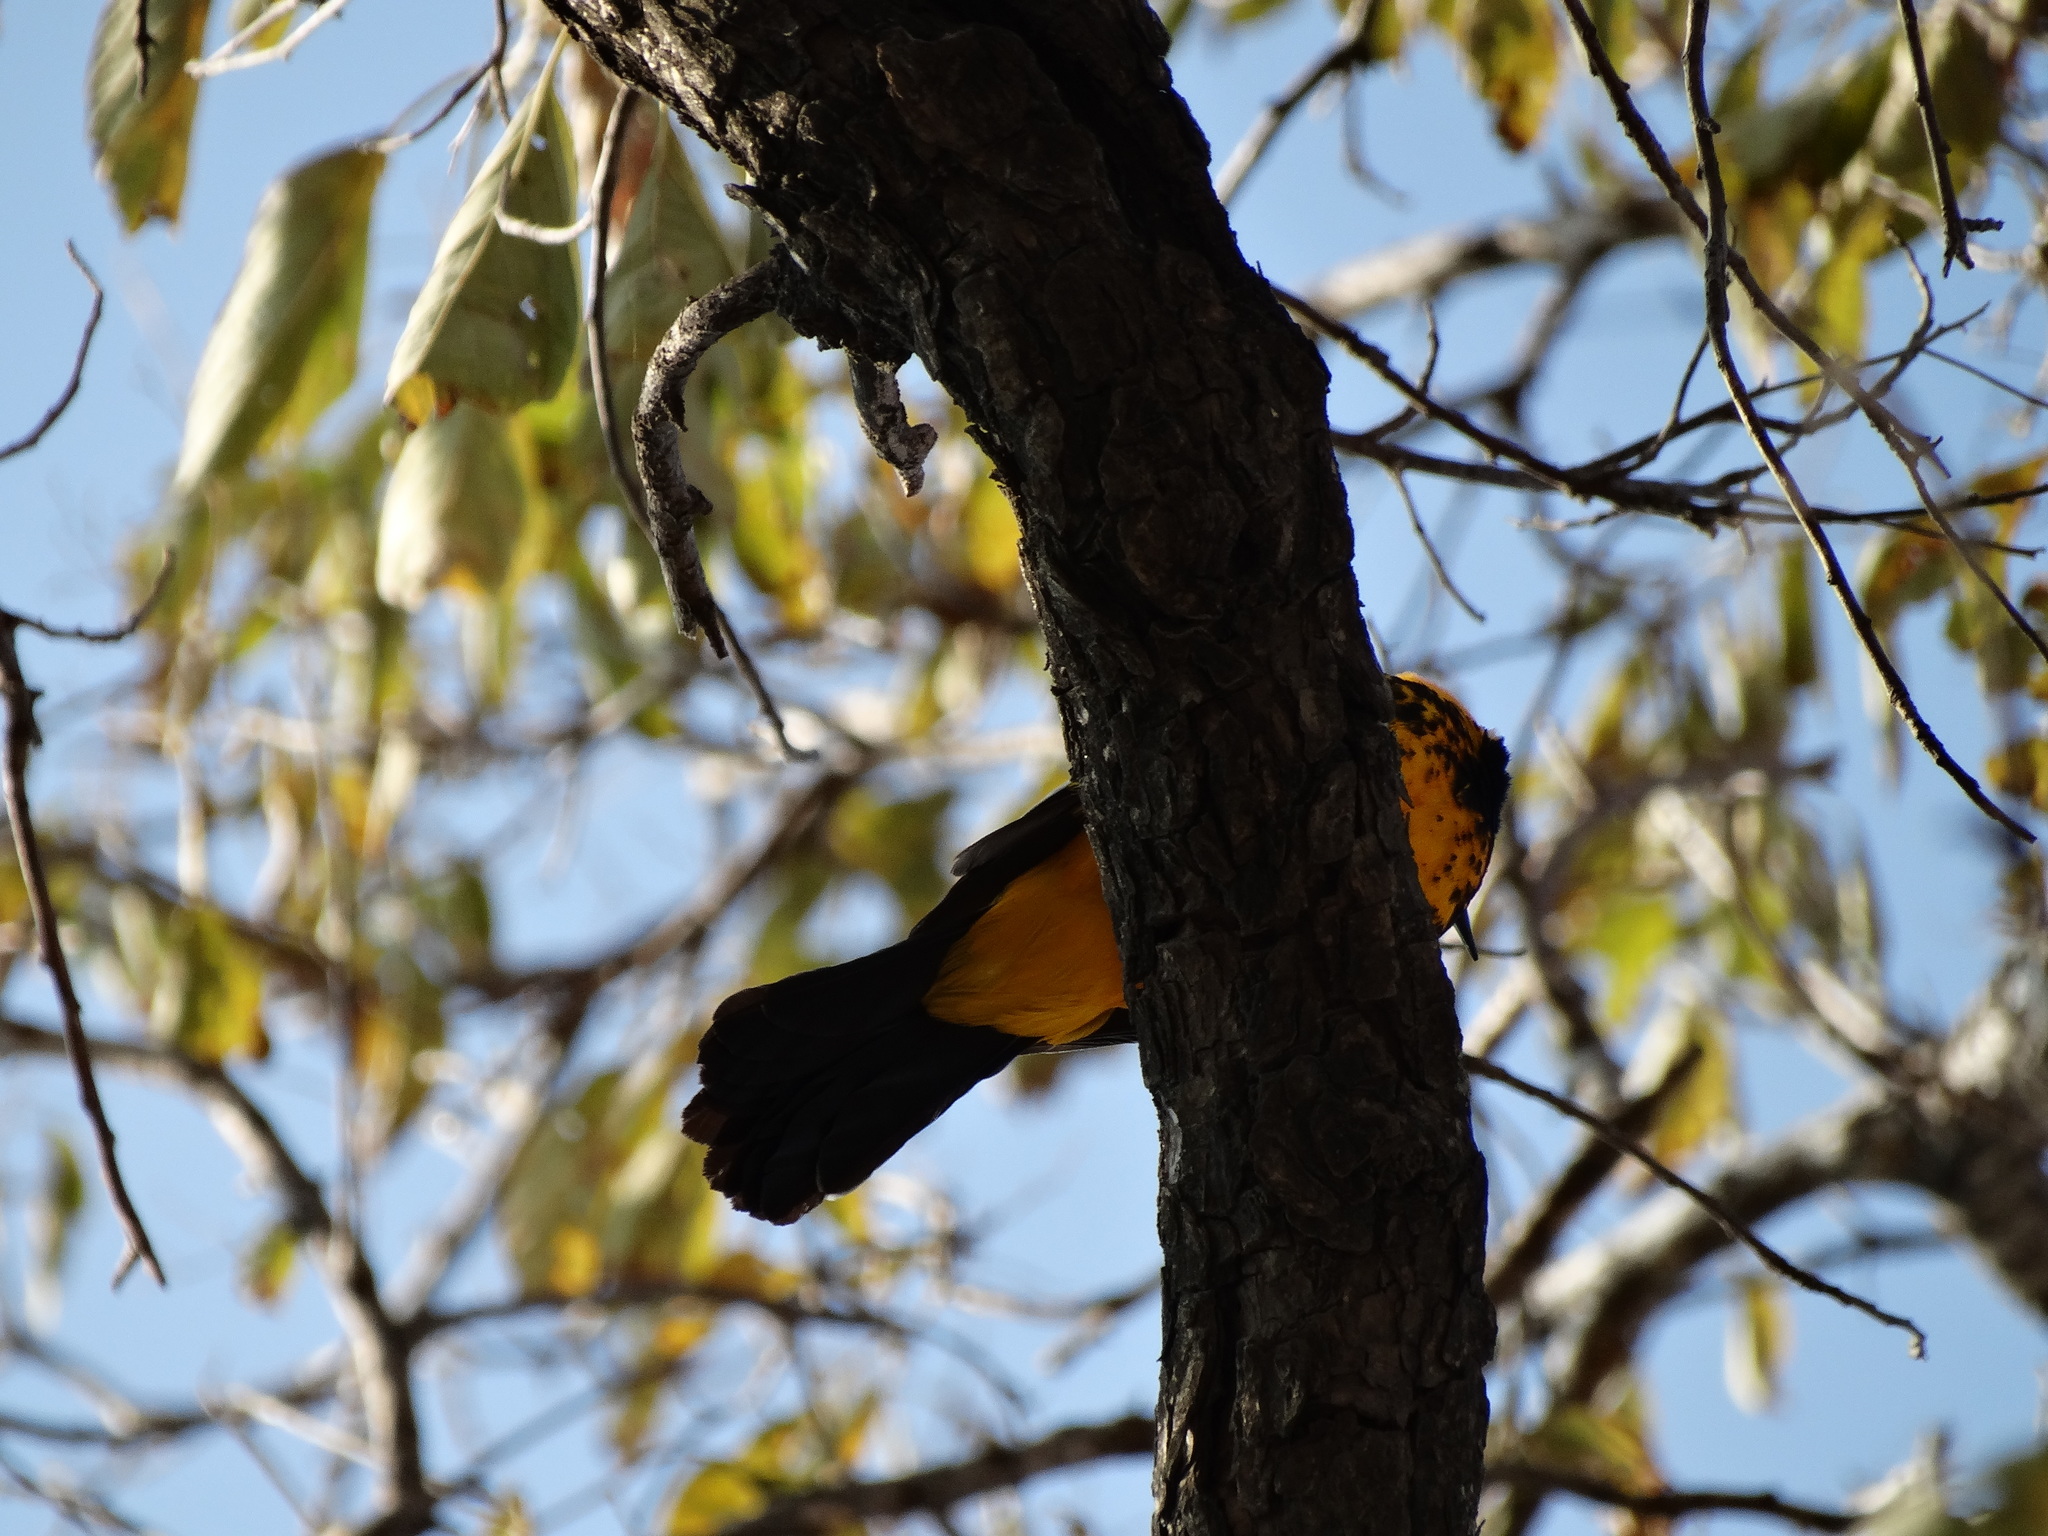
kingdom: Animalia
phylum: Chordata
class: Aves
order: Passeriformes
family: Icteridae
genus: Icterus
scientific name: Icterus pectoralis
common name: Spot-breasted oriole
